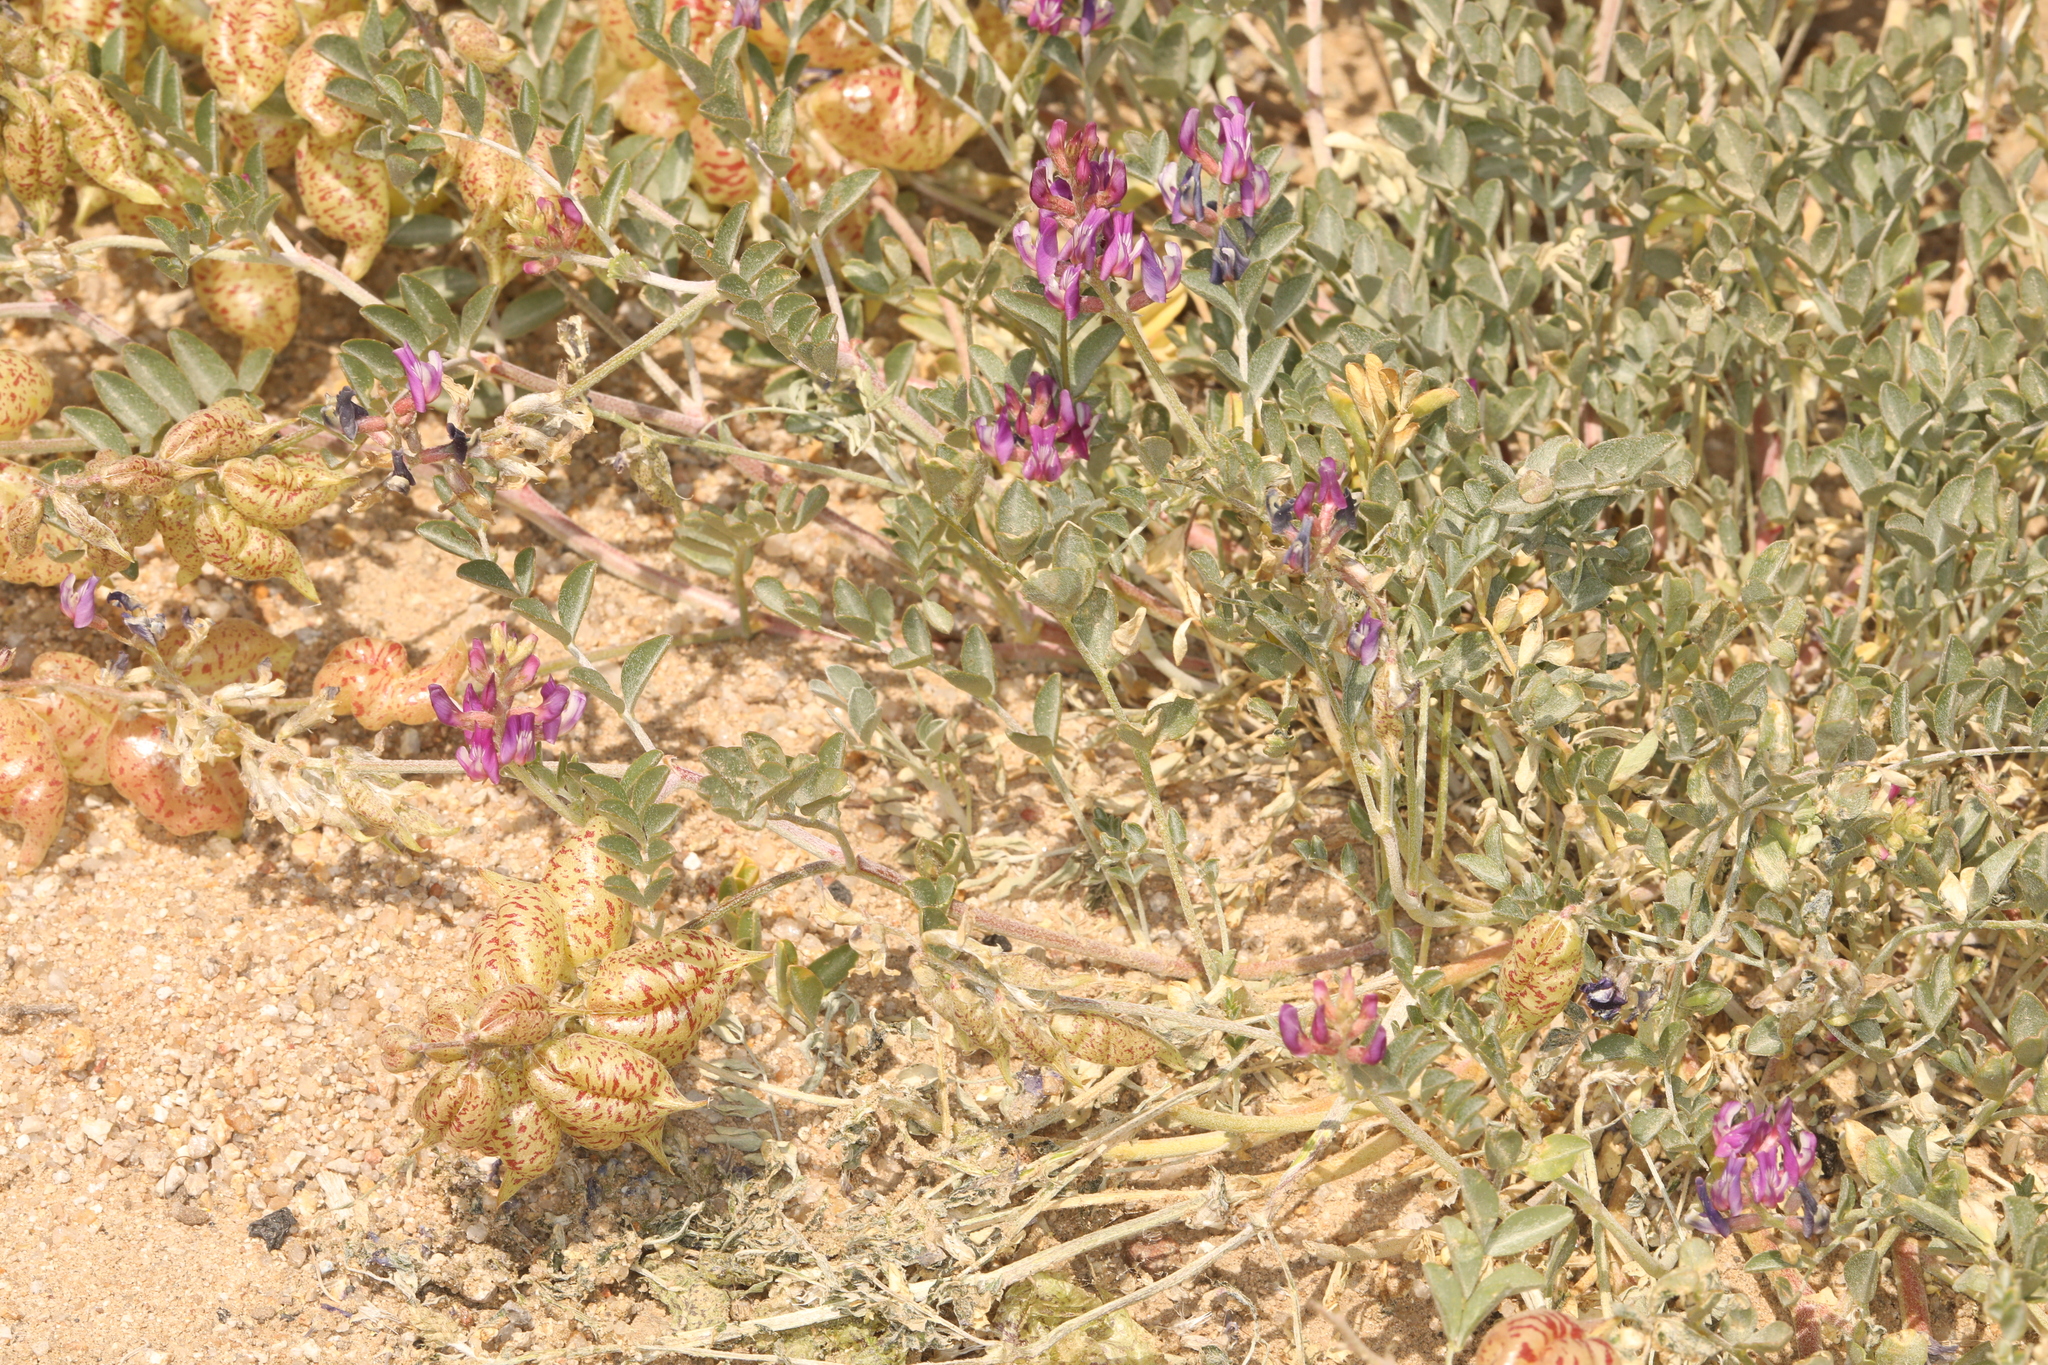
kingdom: Plantae
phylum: Tracheophyta
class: Magnoliopsida
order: Fabales
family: Fabaceae
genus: Astragalus
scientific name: Astragalus lentiginosus
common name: Freckled milkvetch
